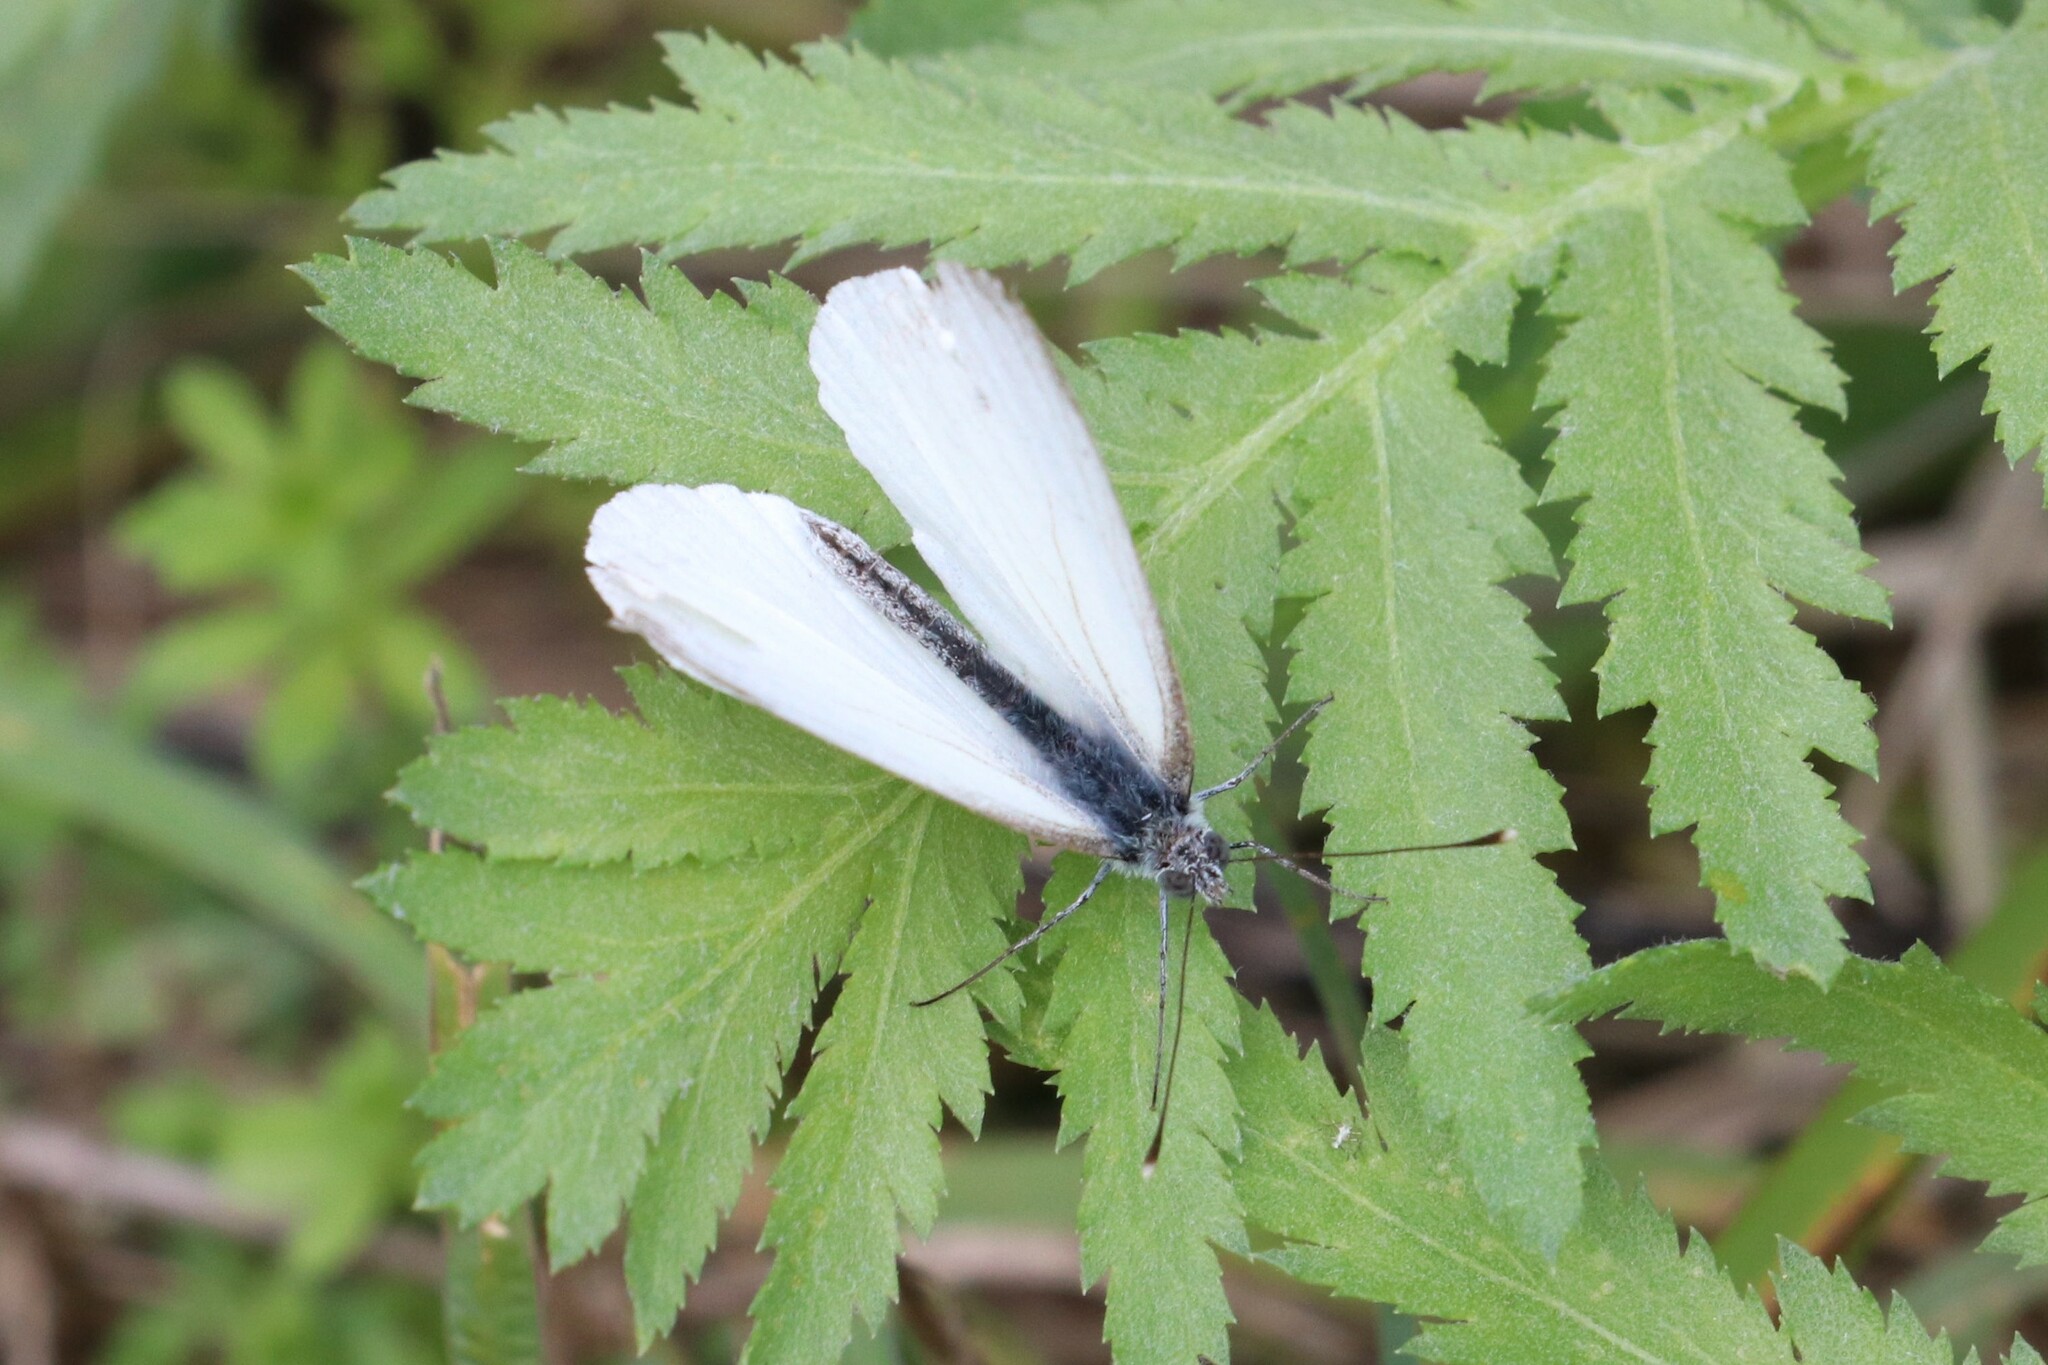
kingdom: Animalia
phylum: Arthropoda
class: Insecta
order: Lepidoptera
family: Pieridae
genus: Pieris
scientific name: Pieris napi
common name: Green-veined white
